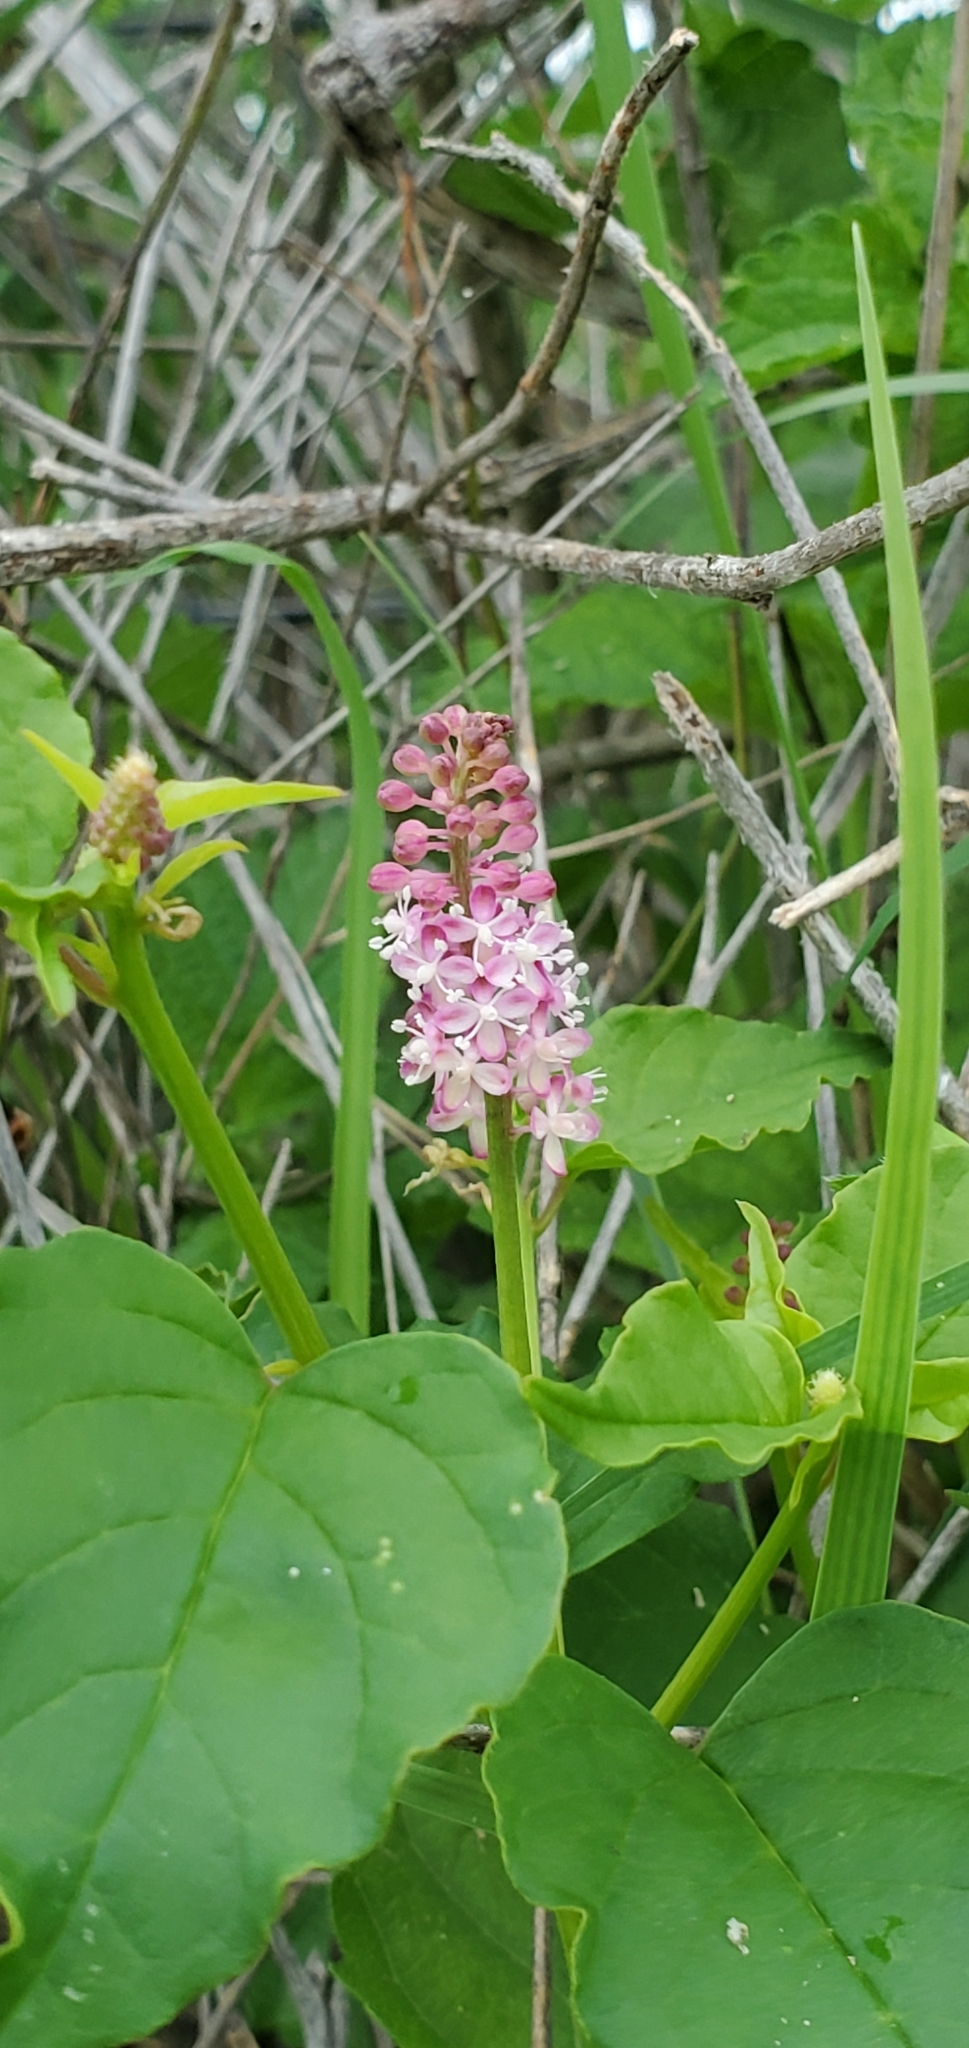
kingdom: Plantae
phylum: Tracheophyta
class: Magnoliopsida
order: Caryophyllales
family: Phytolaccaceae
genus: Rivina
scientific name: Rivina humilis
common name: Rougeplant
